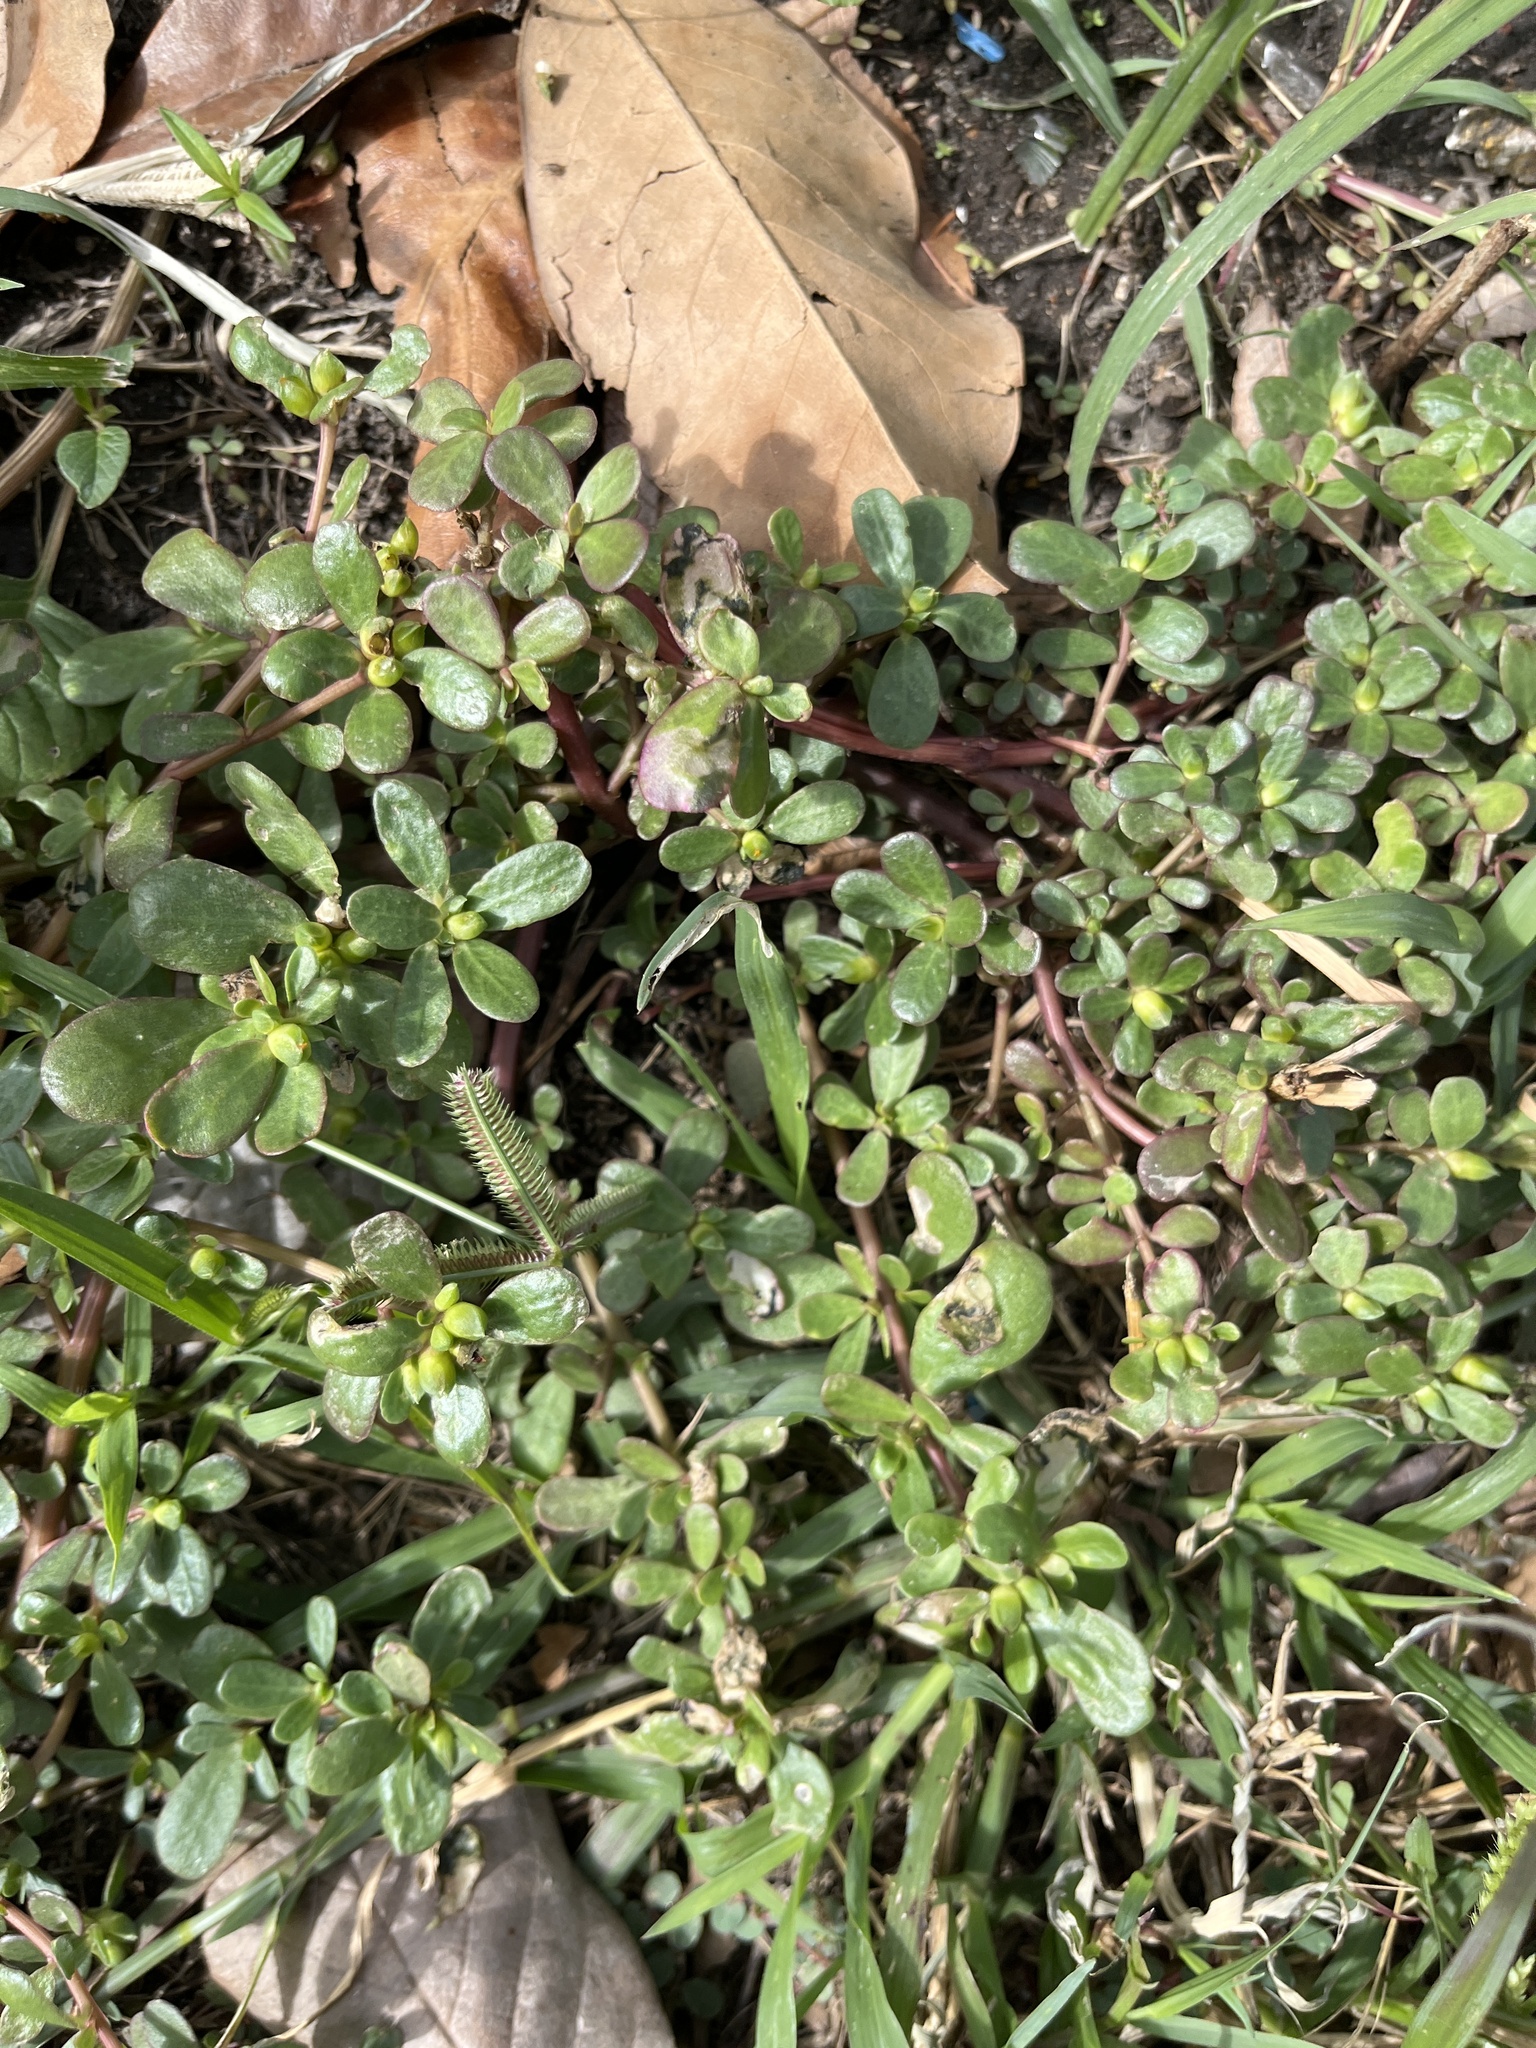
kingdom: Plantae
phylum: Tracheophyta
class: Magnoliopsida
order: Caryophyllales
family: Portulacaceae
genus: Portulaca
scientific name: Portulaca oleracea
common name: Common purslane
